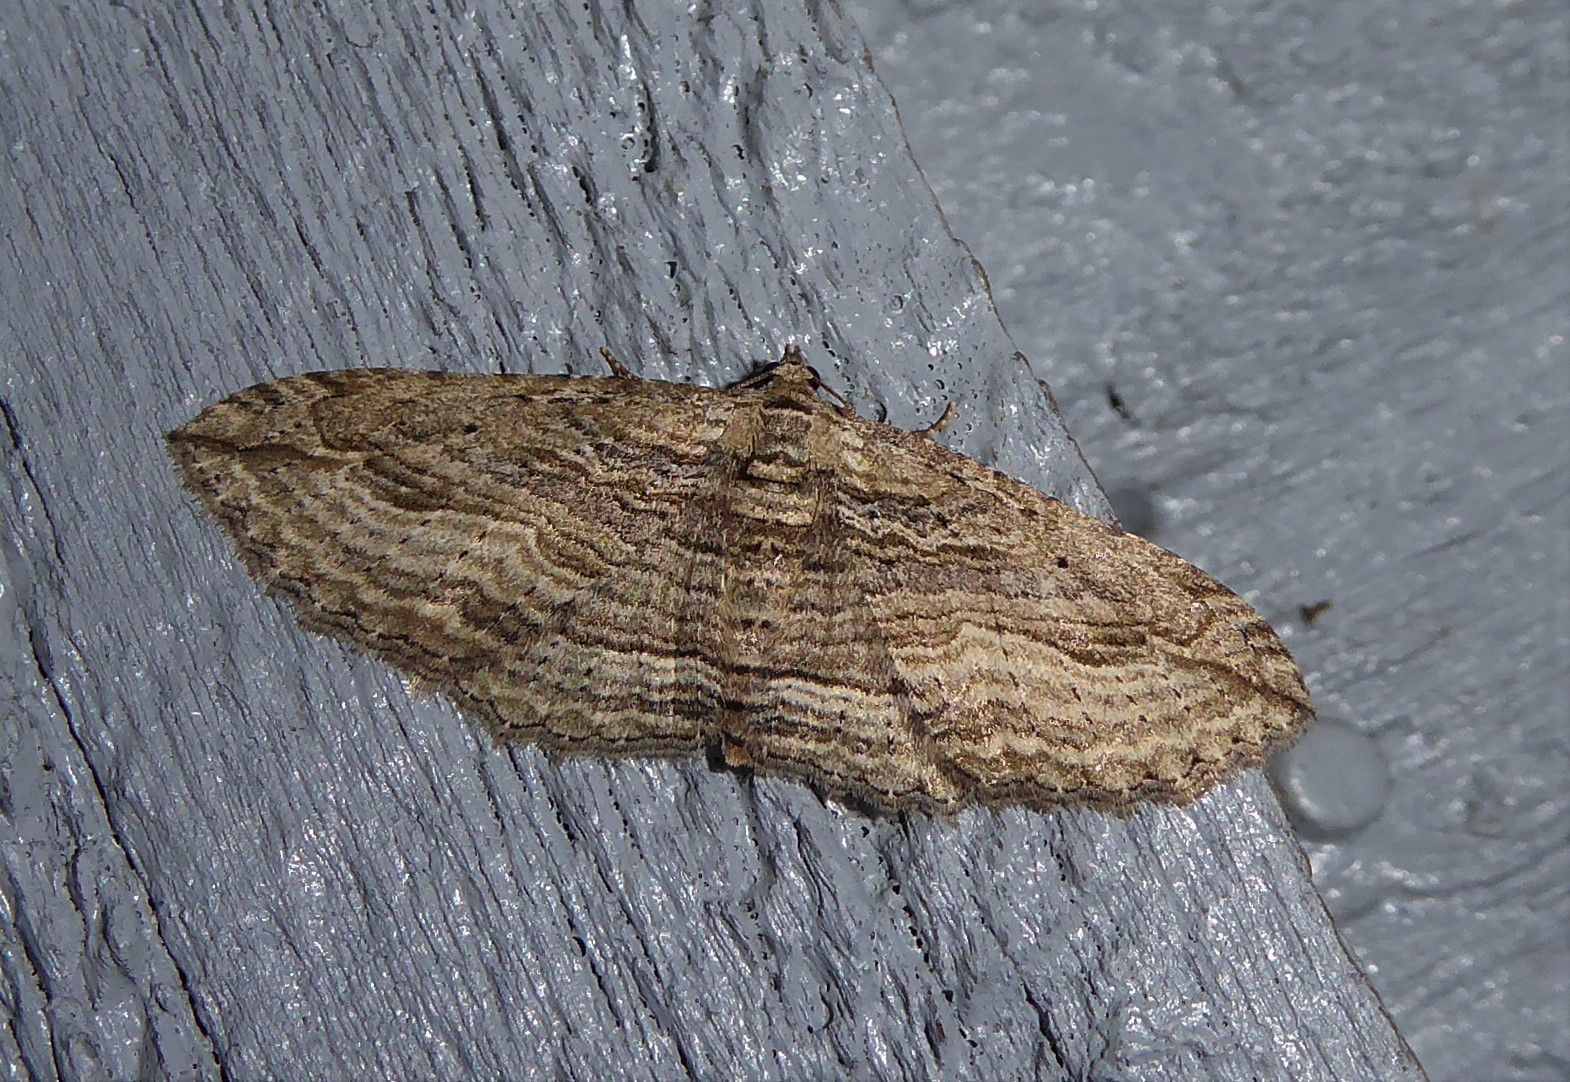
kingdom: Animalia
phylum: Arthropoda
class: Insecta
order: Lepidoptera
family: Geometridae
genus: Austrocidaria
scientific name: Austrocidaria gobiata
